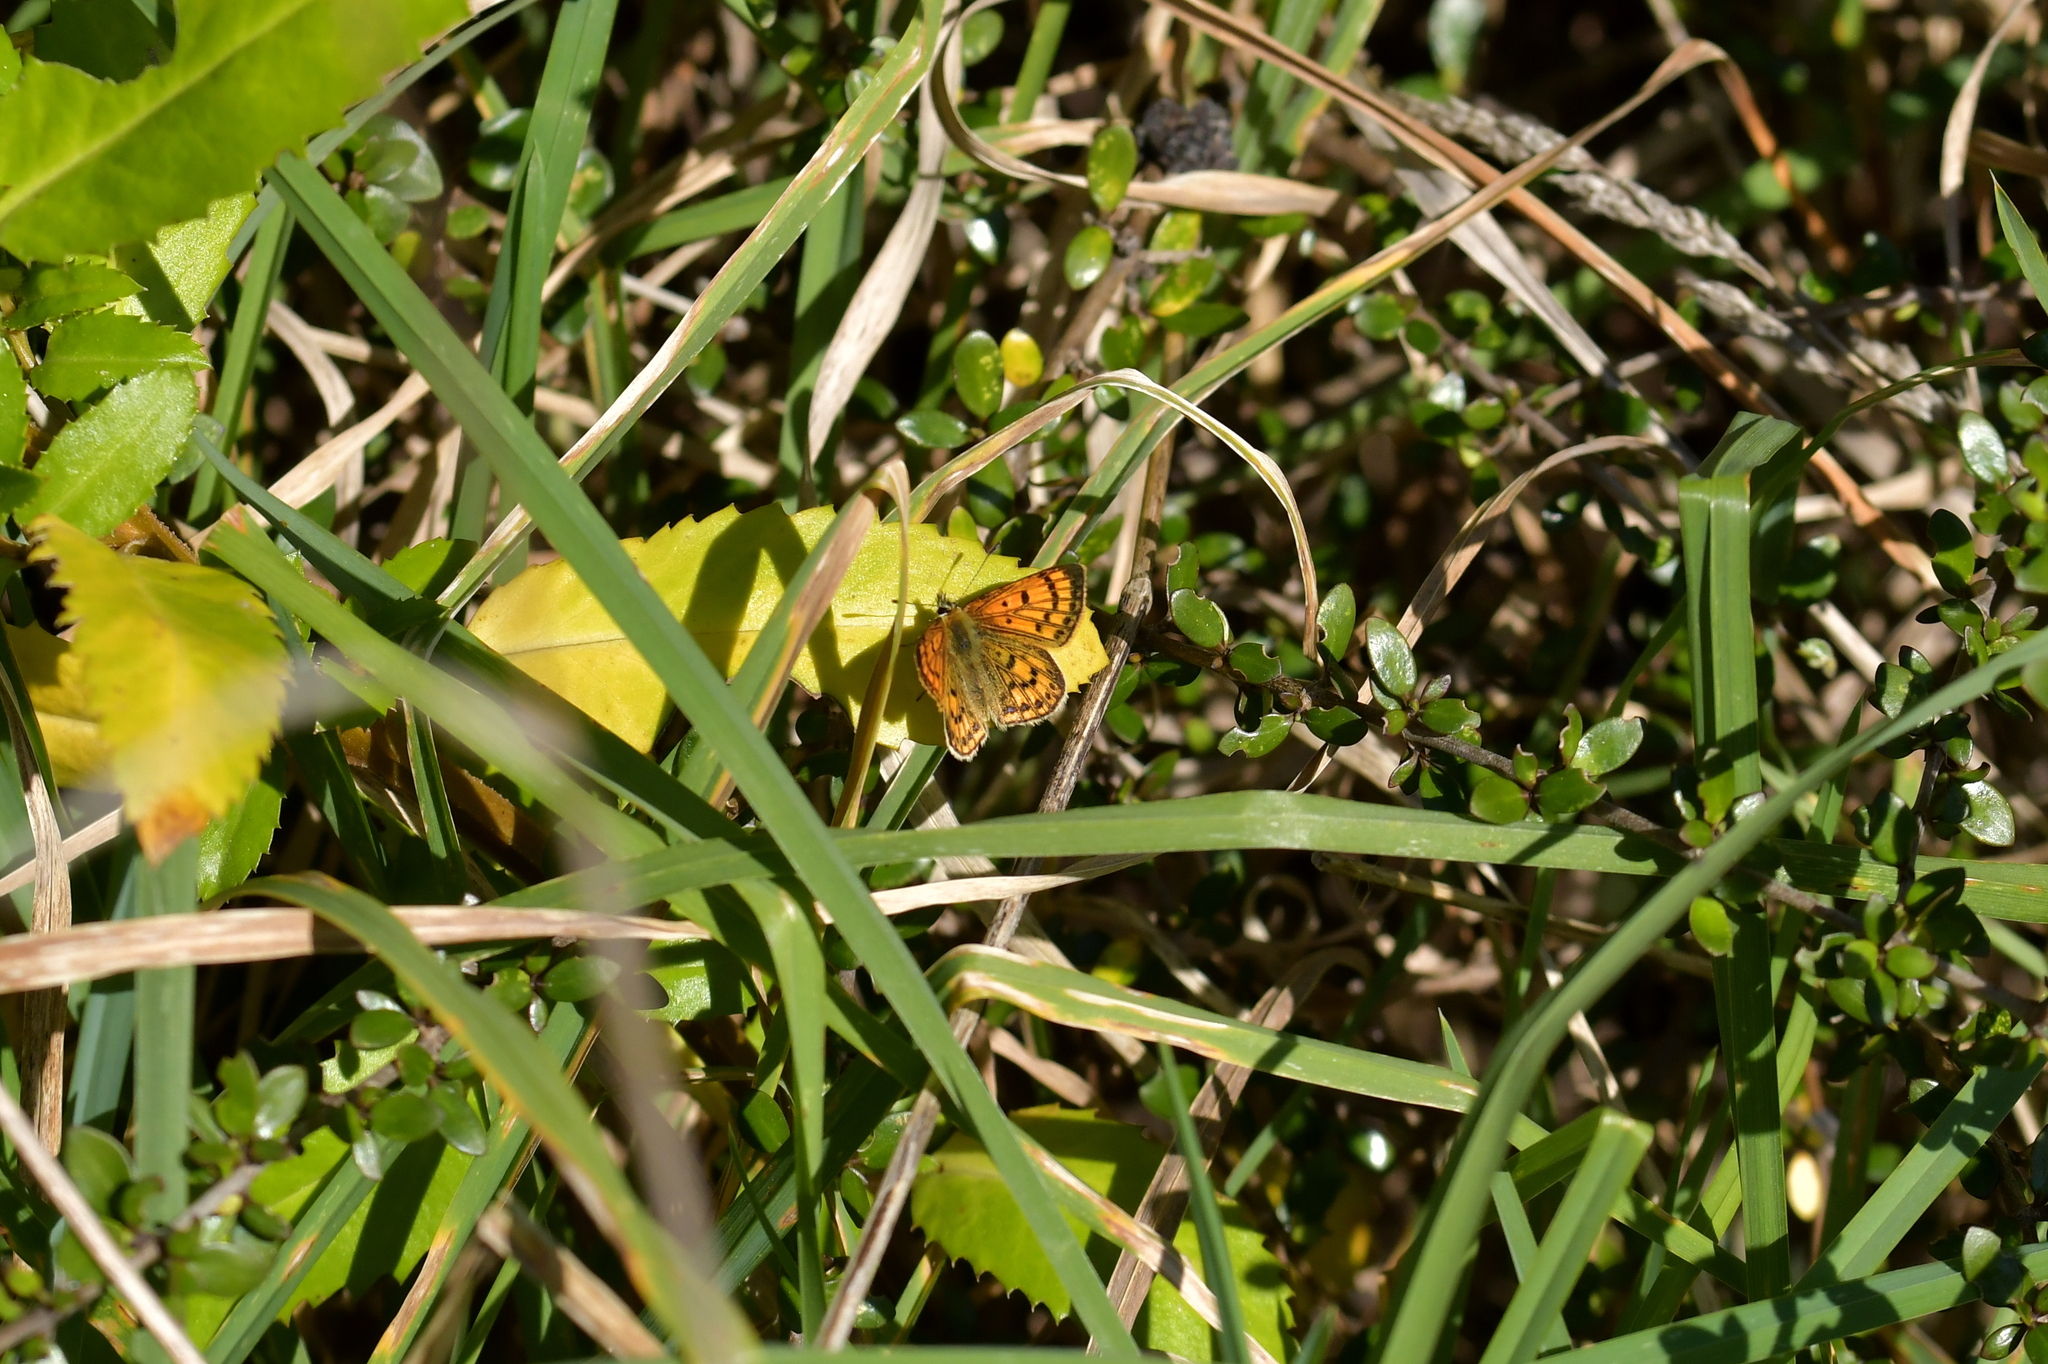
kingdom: Animalia
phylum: Arthropoda
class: Insecta
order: Lepidoptera
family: Lycaenidae
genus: Lycaena
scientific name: Lycaena salustius
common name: North island coastal copper
